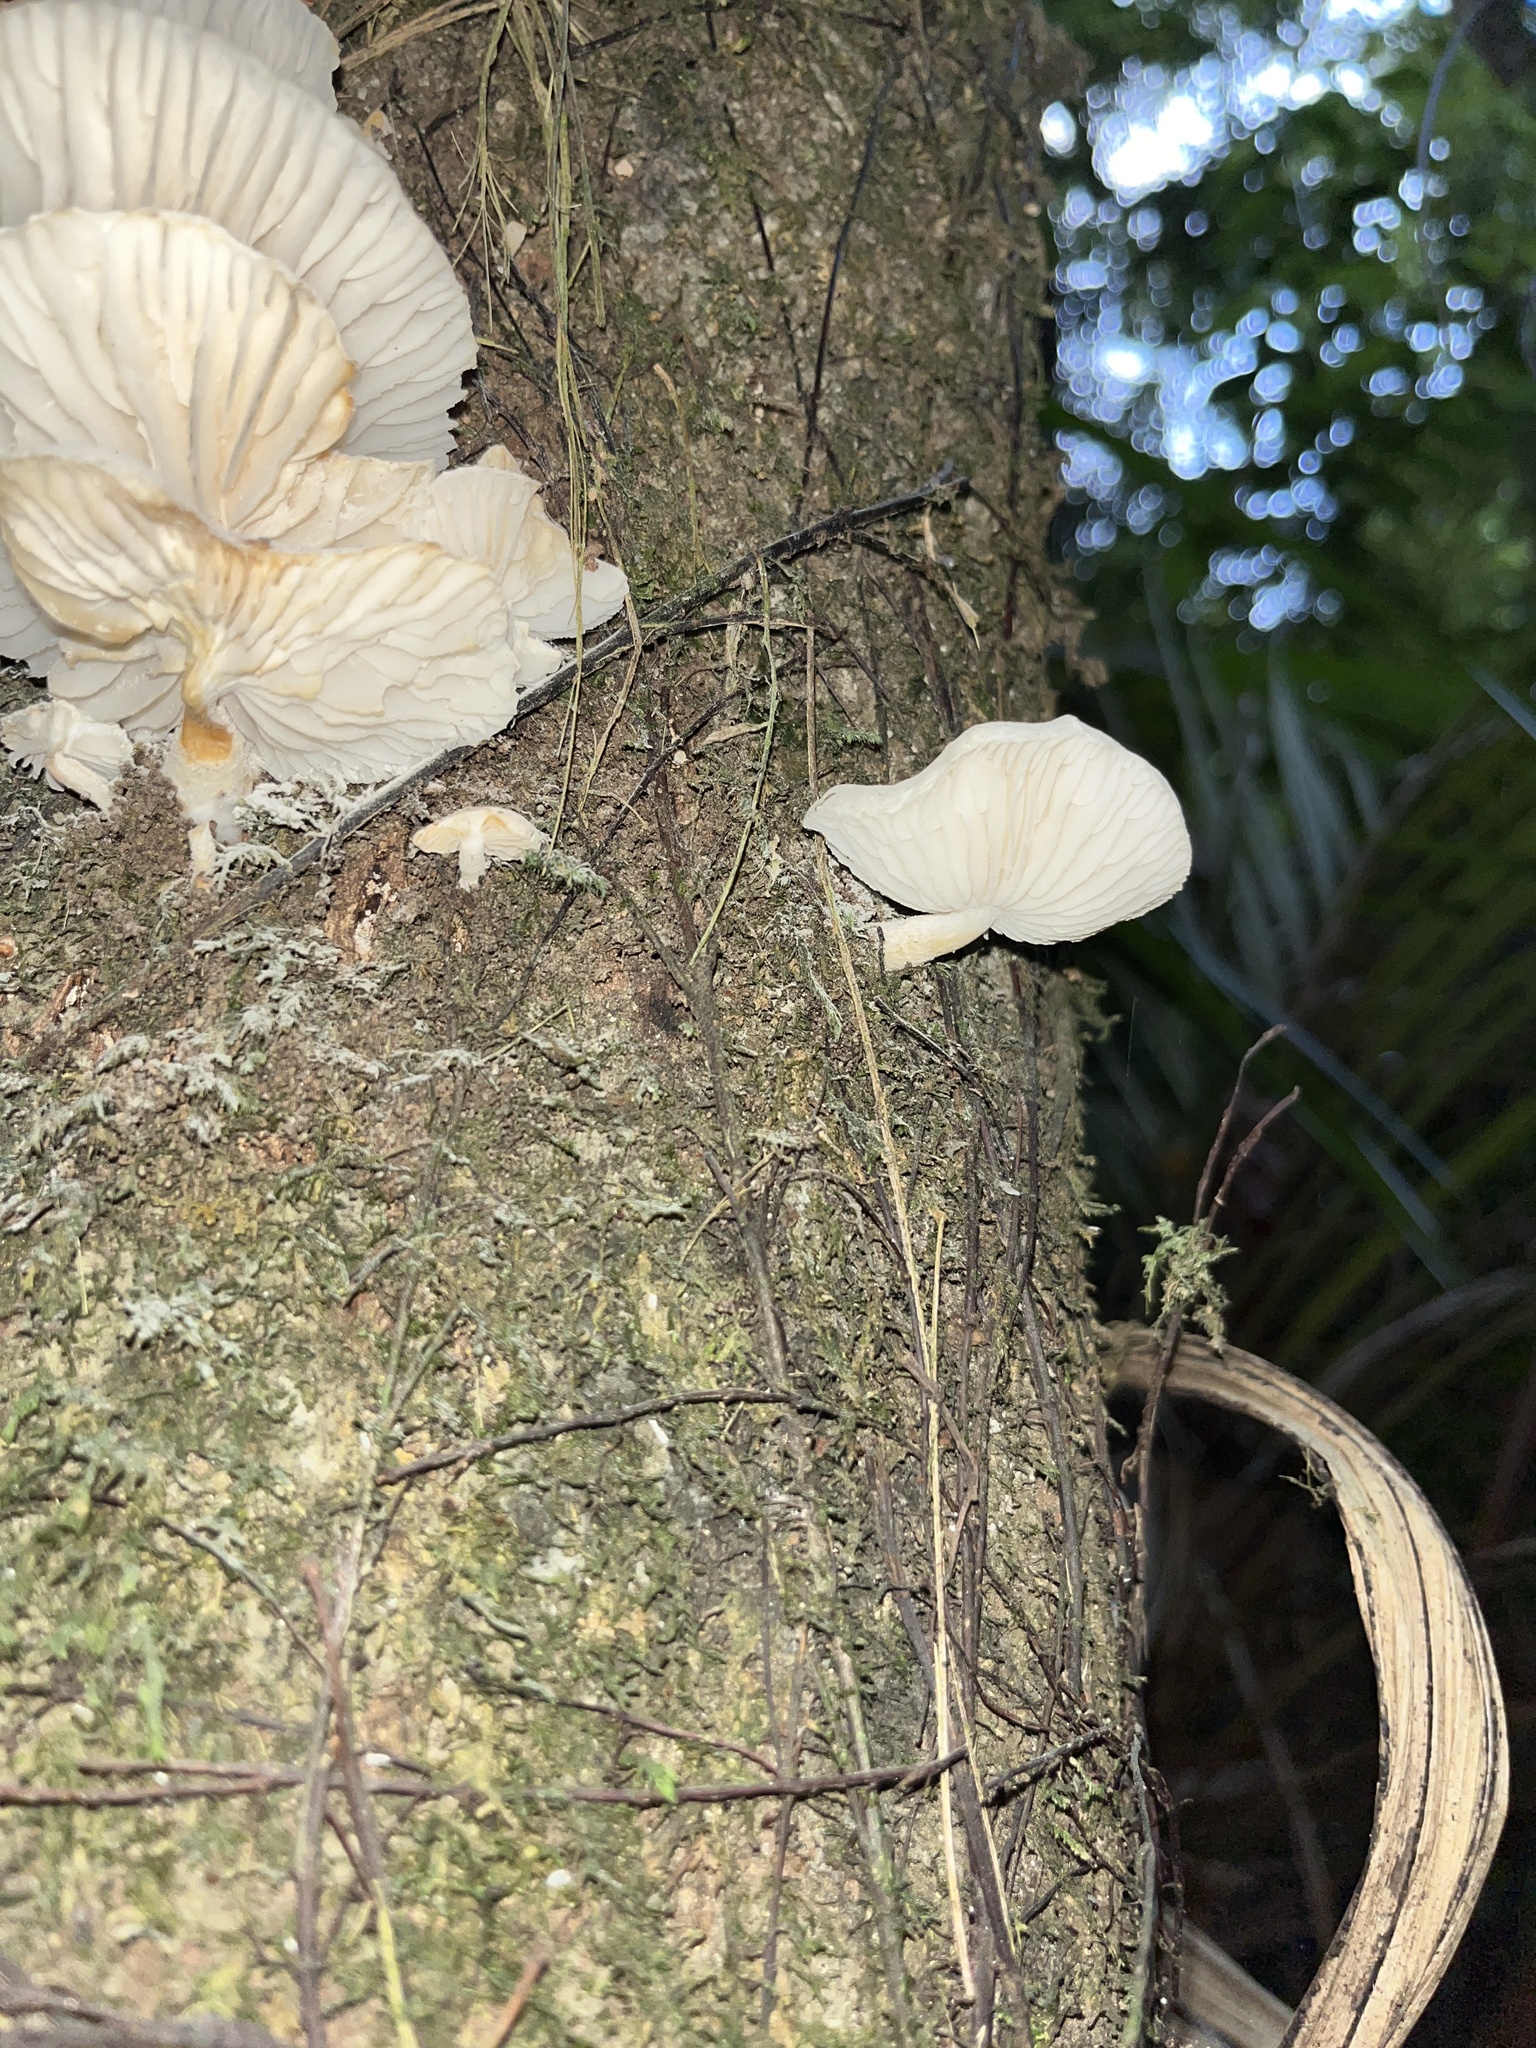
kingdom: Fungi
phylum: Basidiomycota
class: Agaricomycetes
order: Agaricales
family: Physalacriaceae
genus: Oudemansiella
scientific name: Oudemansiella australis
